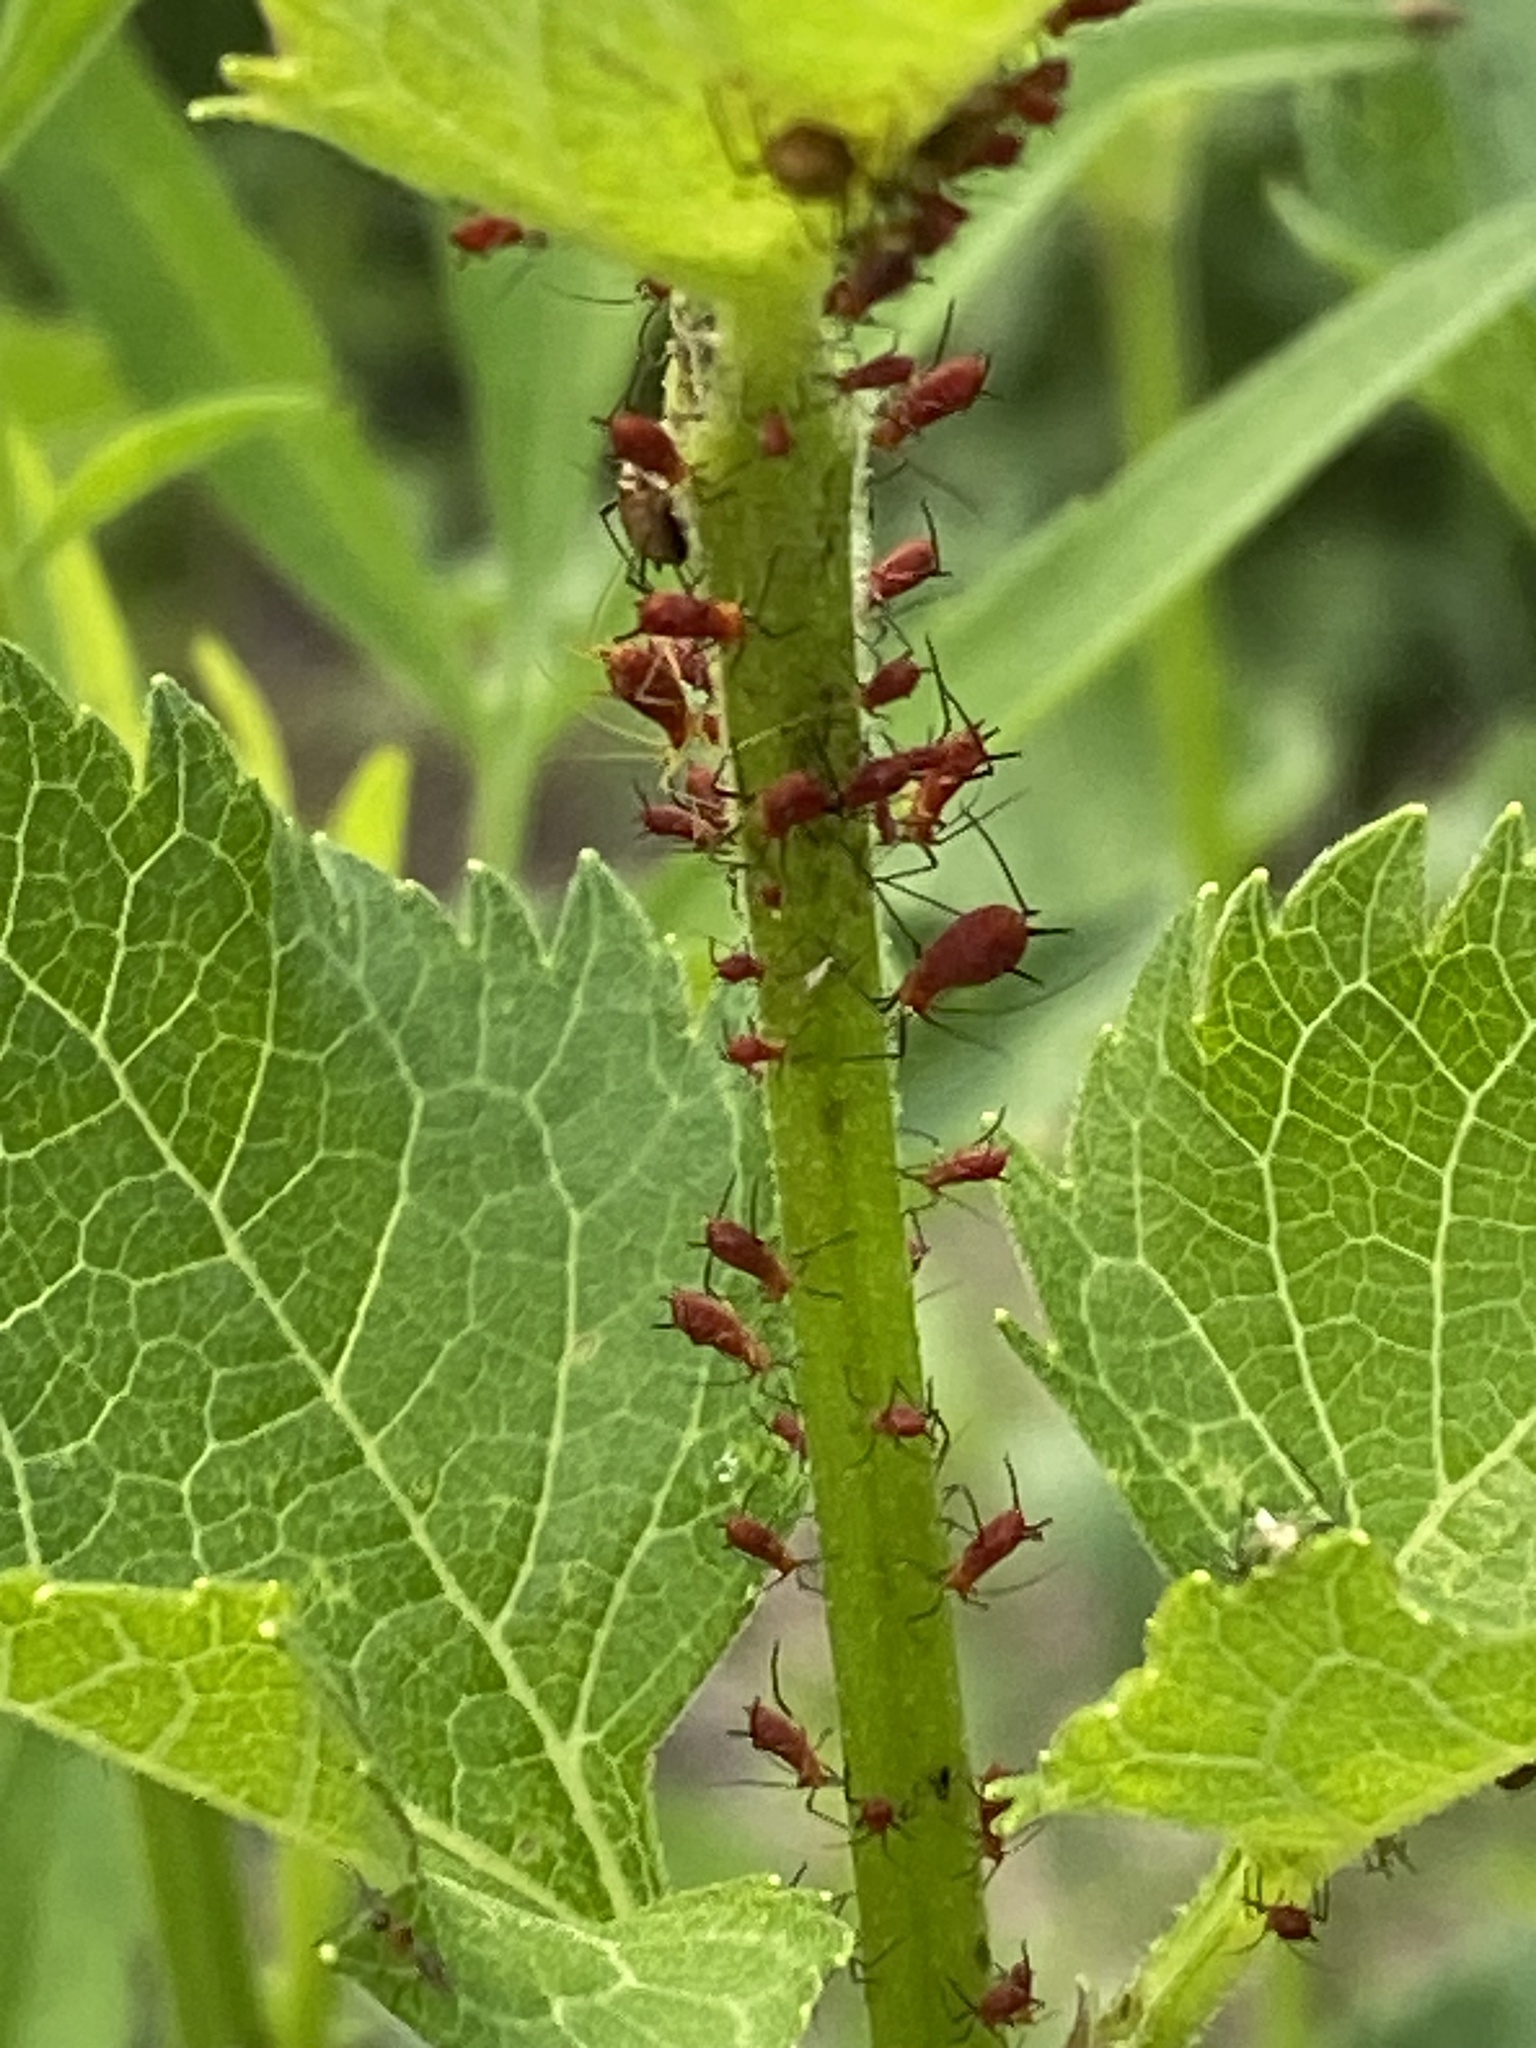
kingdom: Animalia
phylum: Arthropoda
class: Insecta
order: Hemiptera
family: Aphididae
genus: Uroleucon
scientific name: Uroleucon obscuricaudatum
